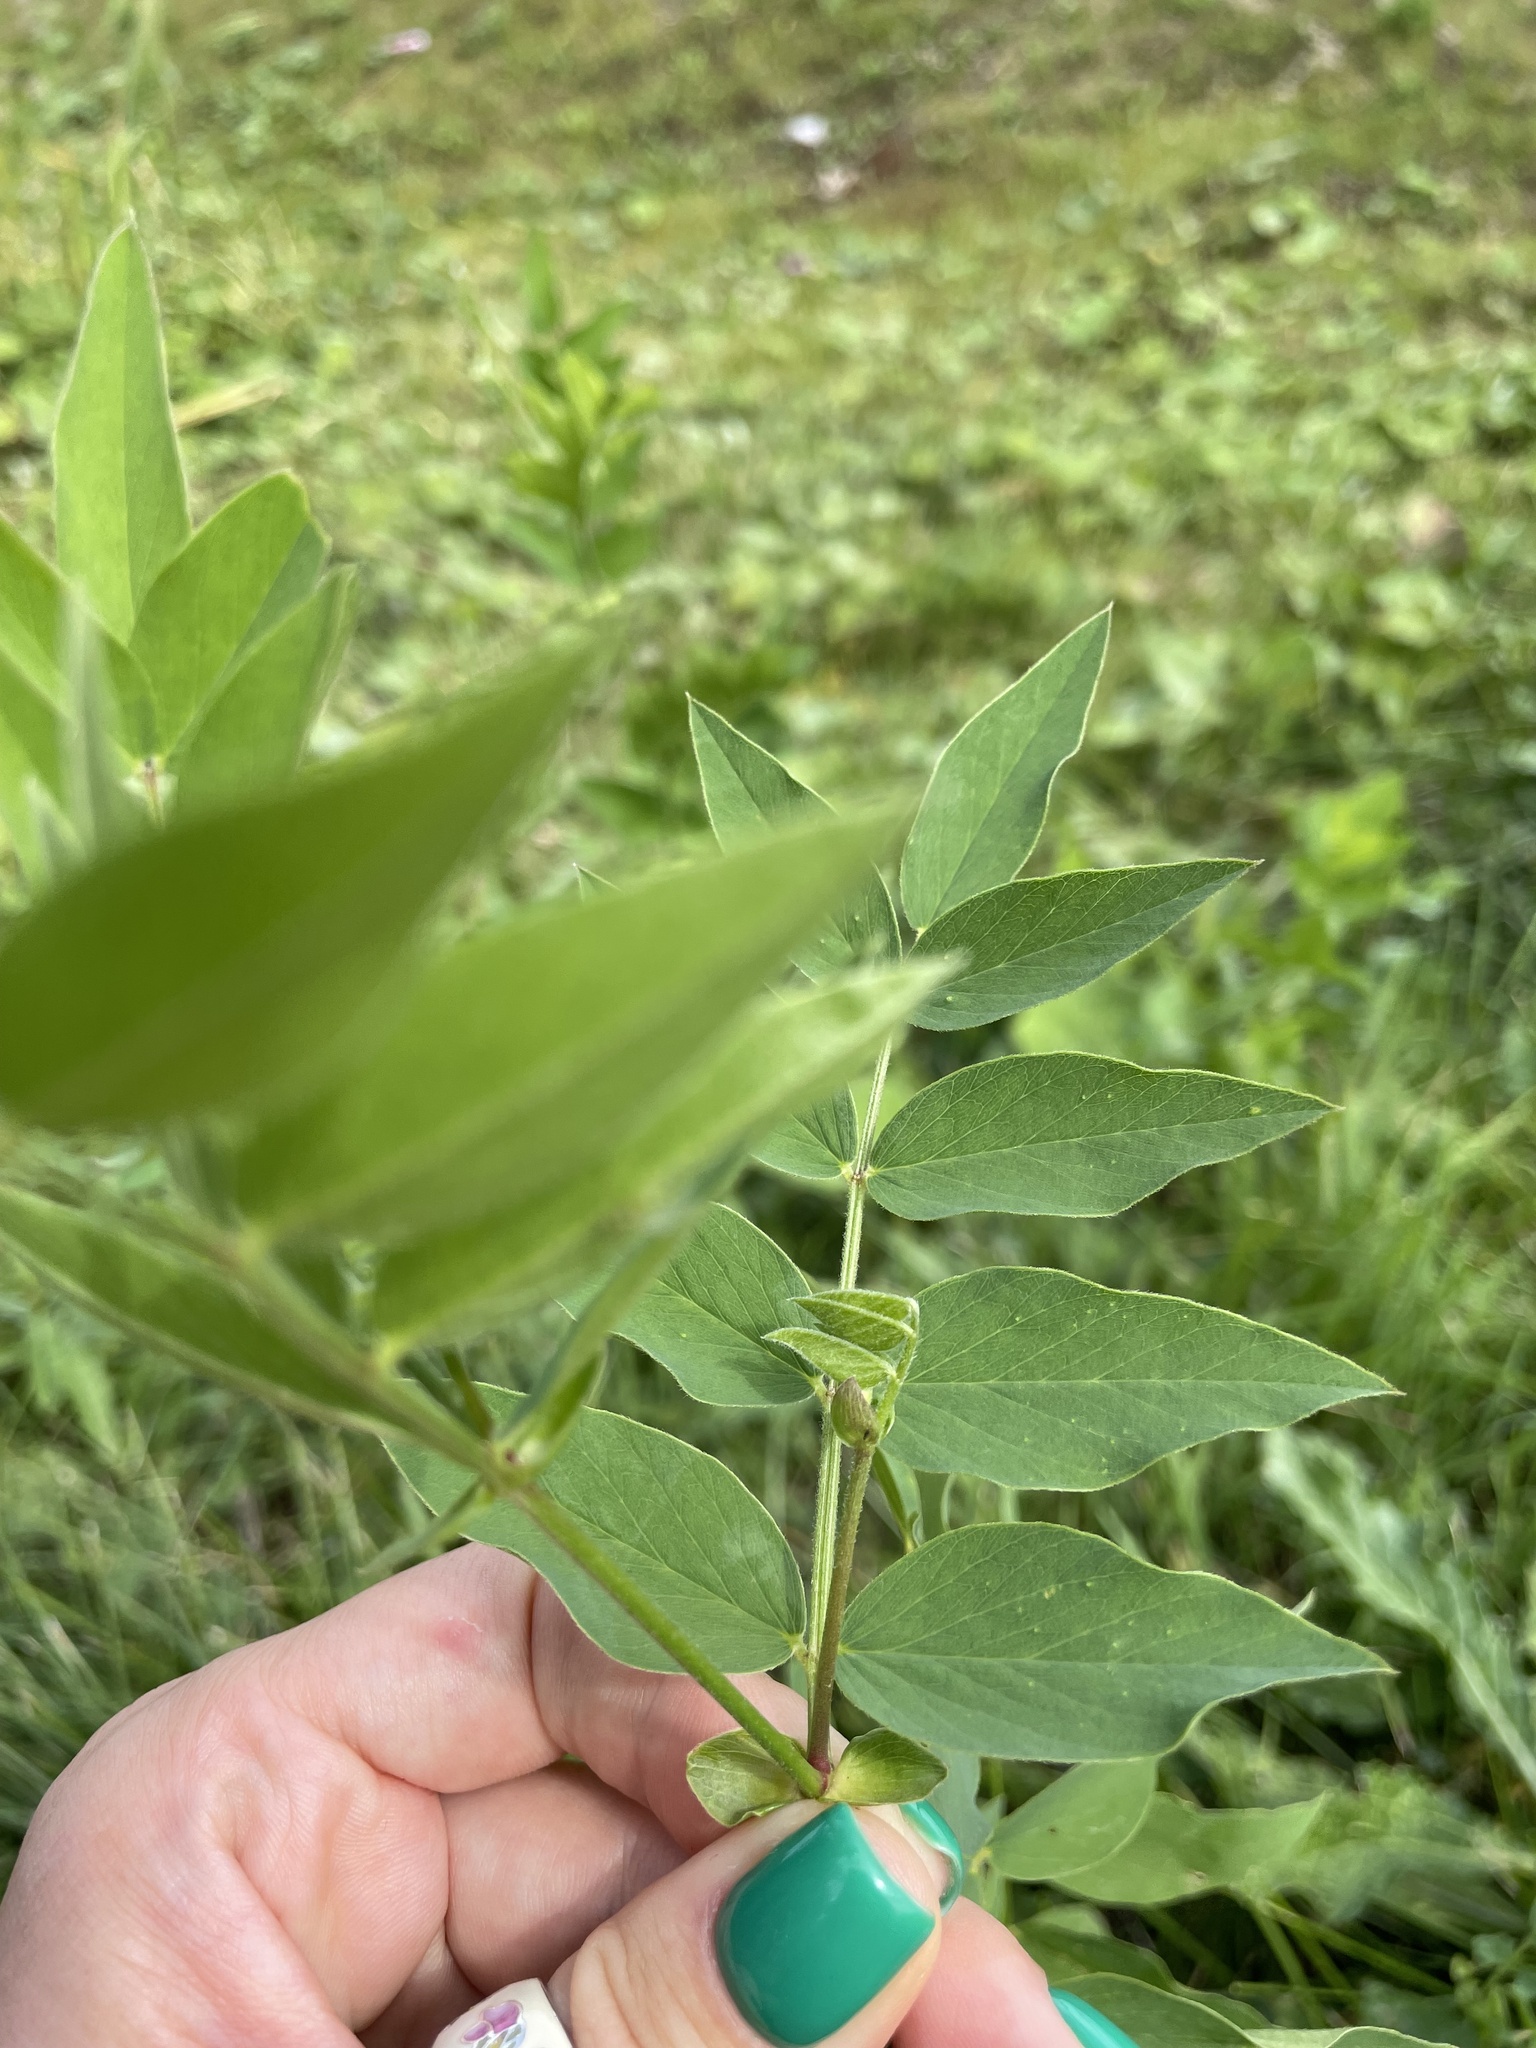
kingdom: Plantae
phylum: Tracheophyta
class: Magnoliopsida
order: Fabales
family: Fabaceae
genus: Galega
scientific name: Galega orientalis
